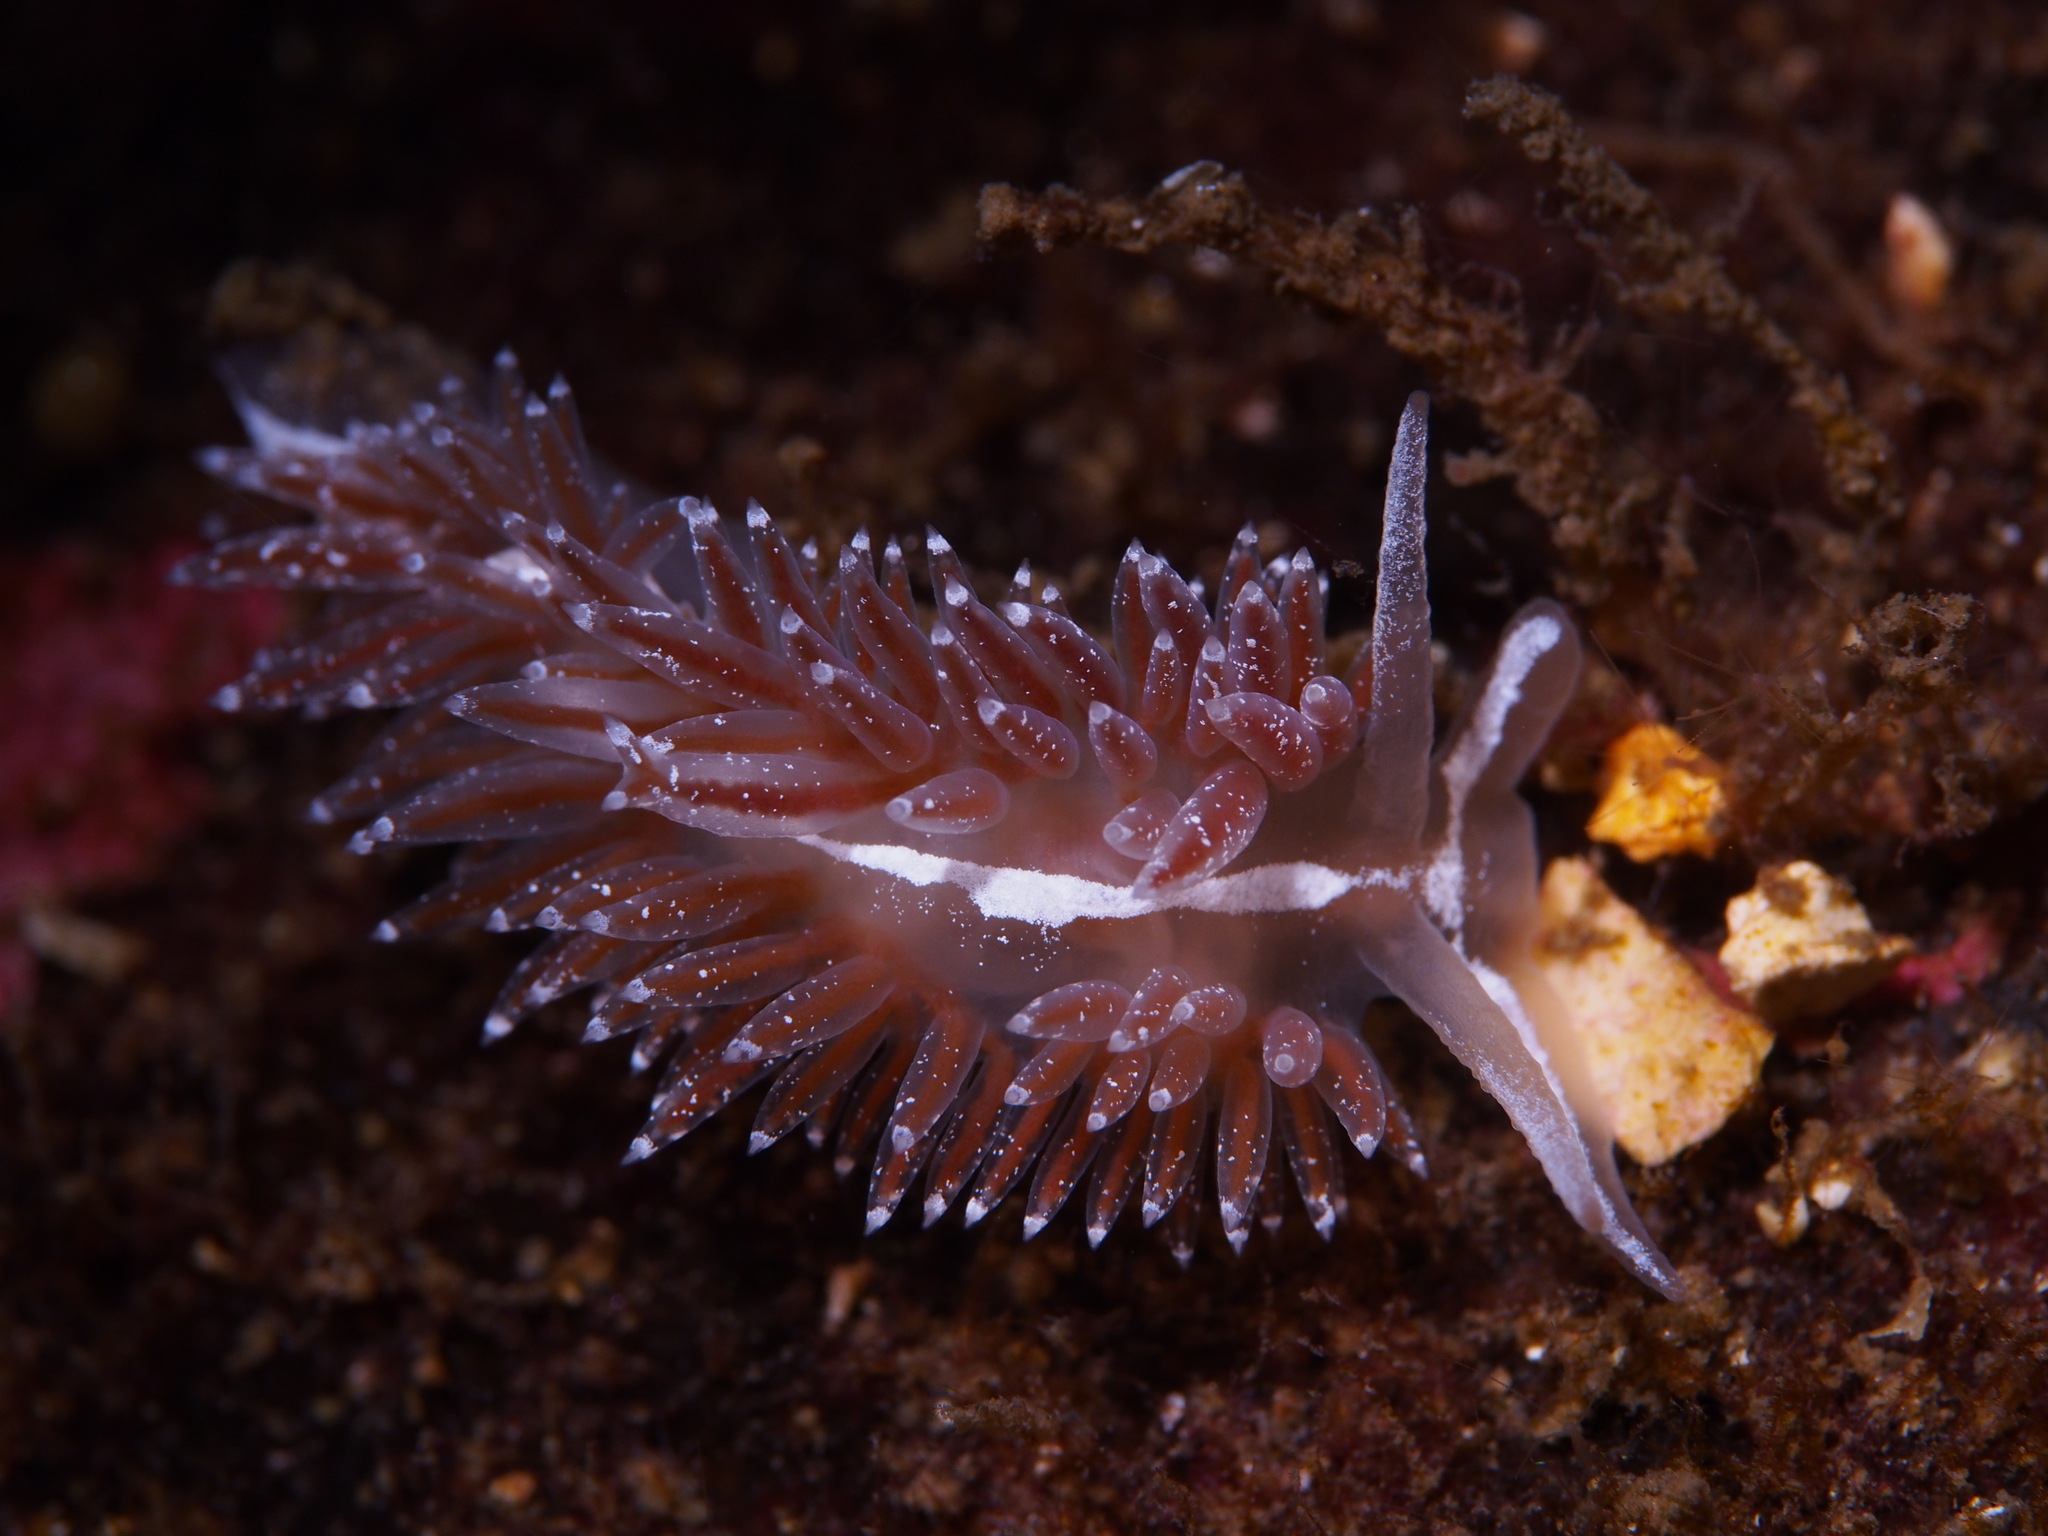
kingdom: Animalia
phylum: Mollusca
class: Gastropoda
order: Nudibranchia
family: Coryphellidae
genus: Coryphella
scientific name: Coryphella orjani
